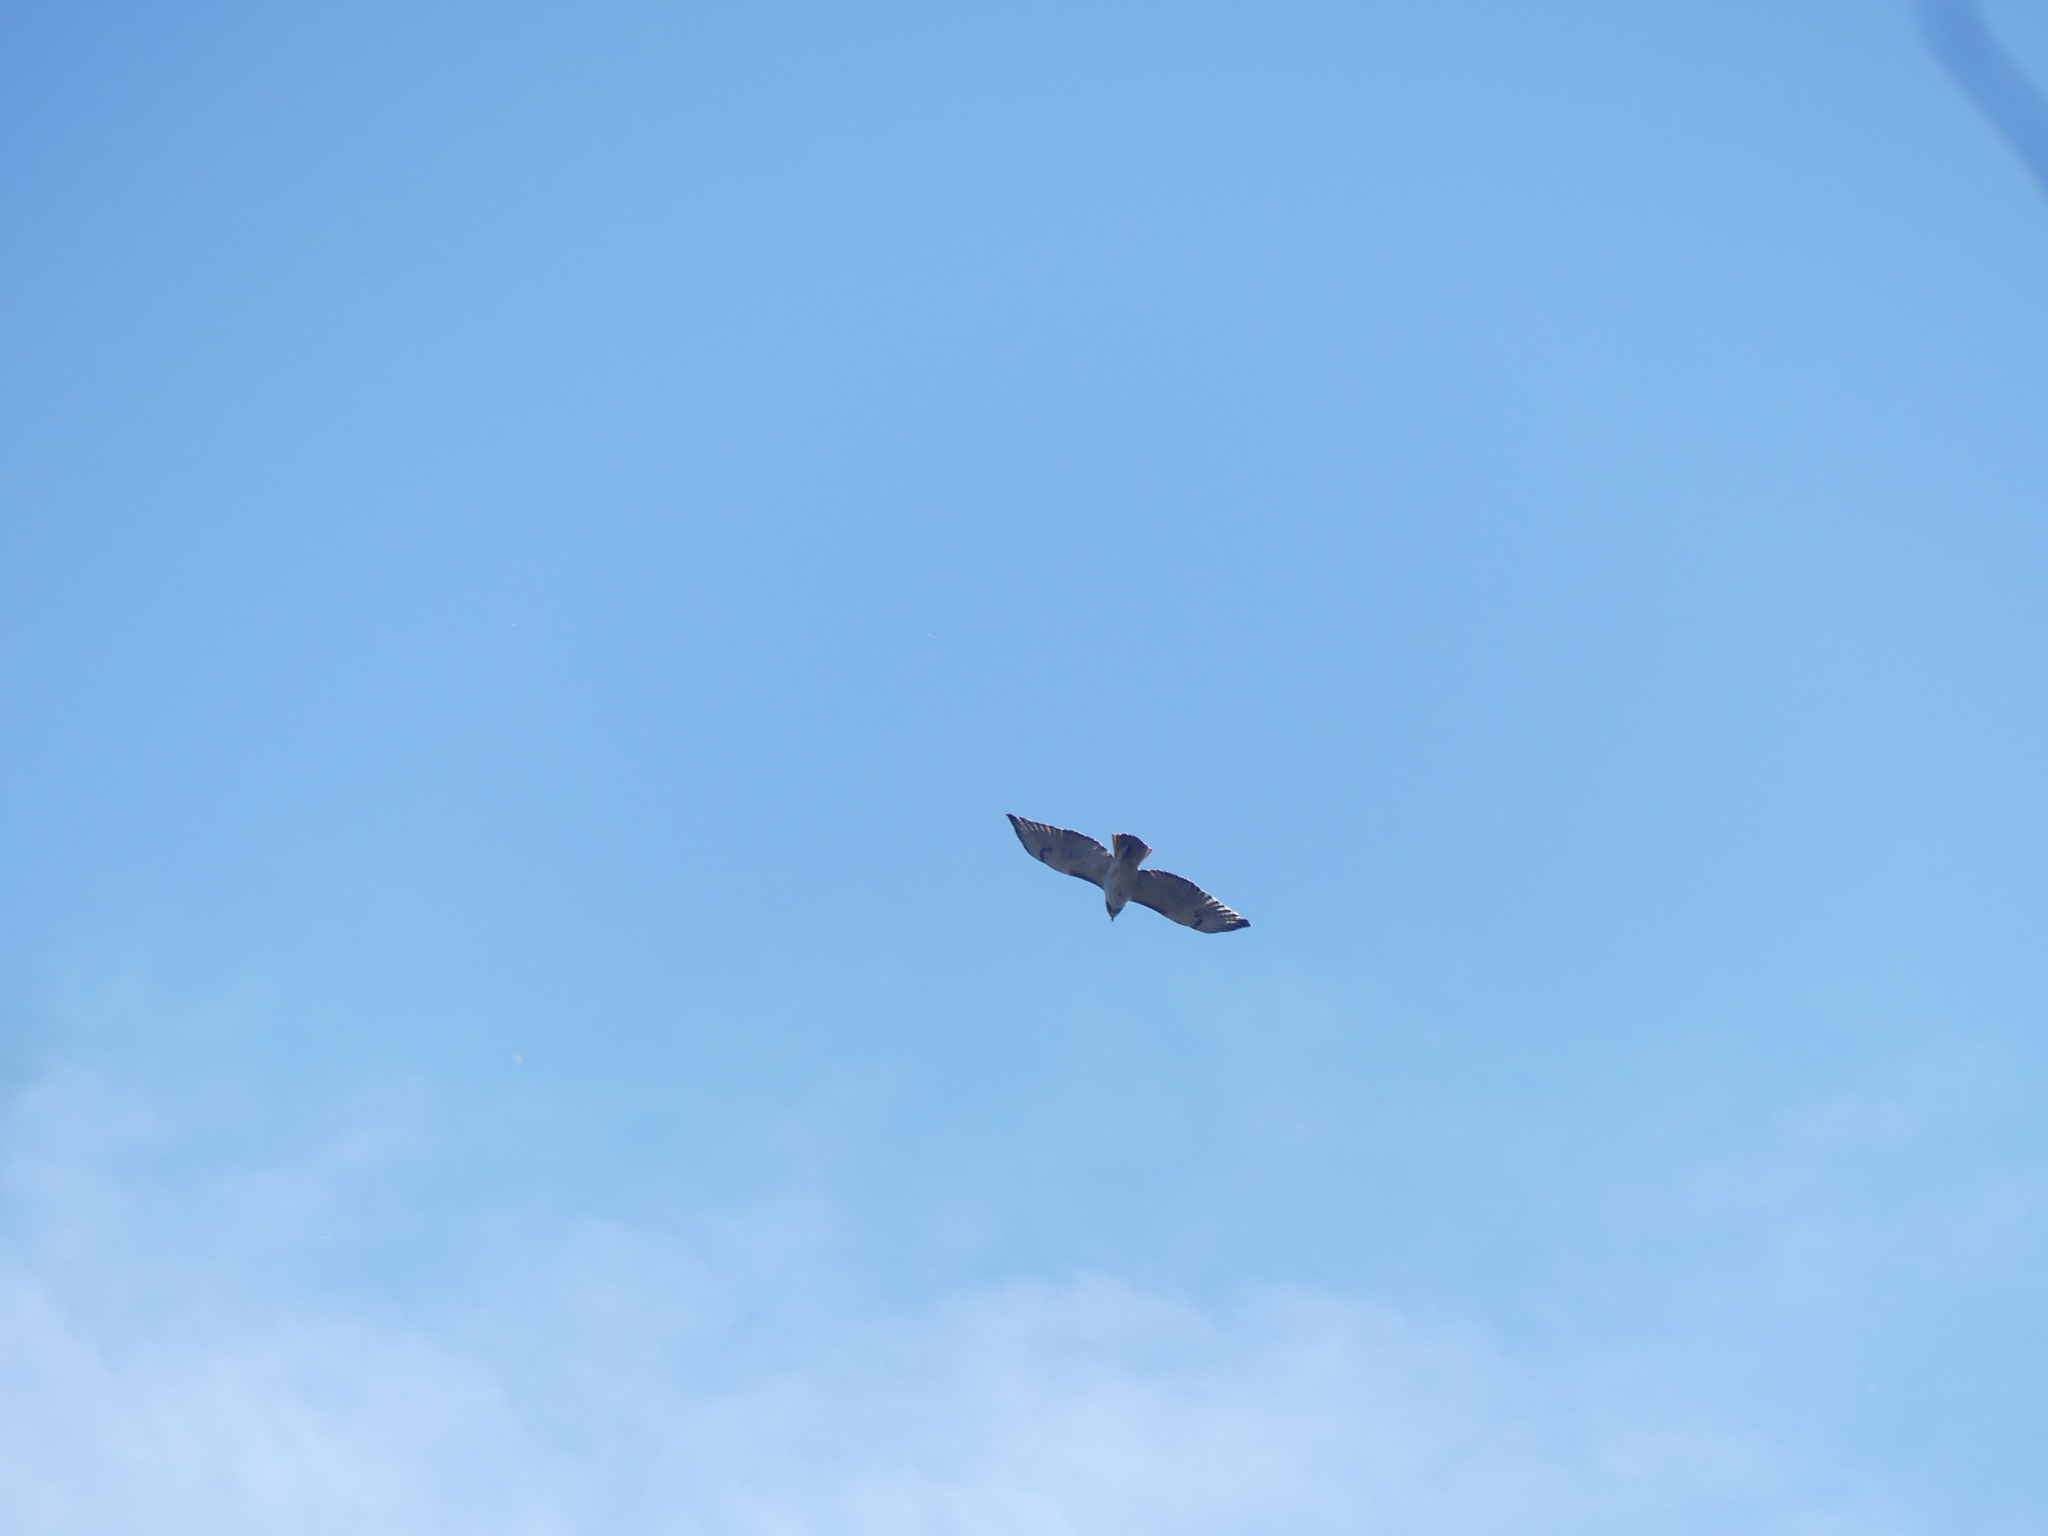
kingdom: Animalia
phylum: Chordata
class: Aves
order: Accipitriformes
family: Accipitridae
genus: Buteo
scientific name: Buteo jamaicensis
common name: Red-tailed hawk
